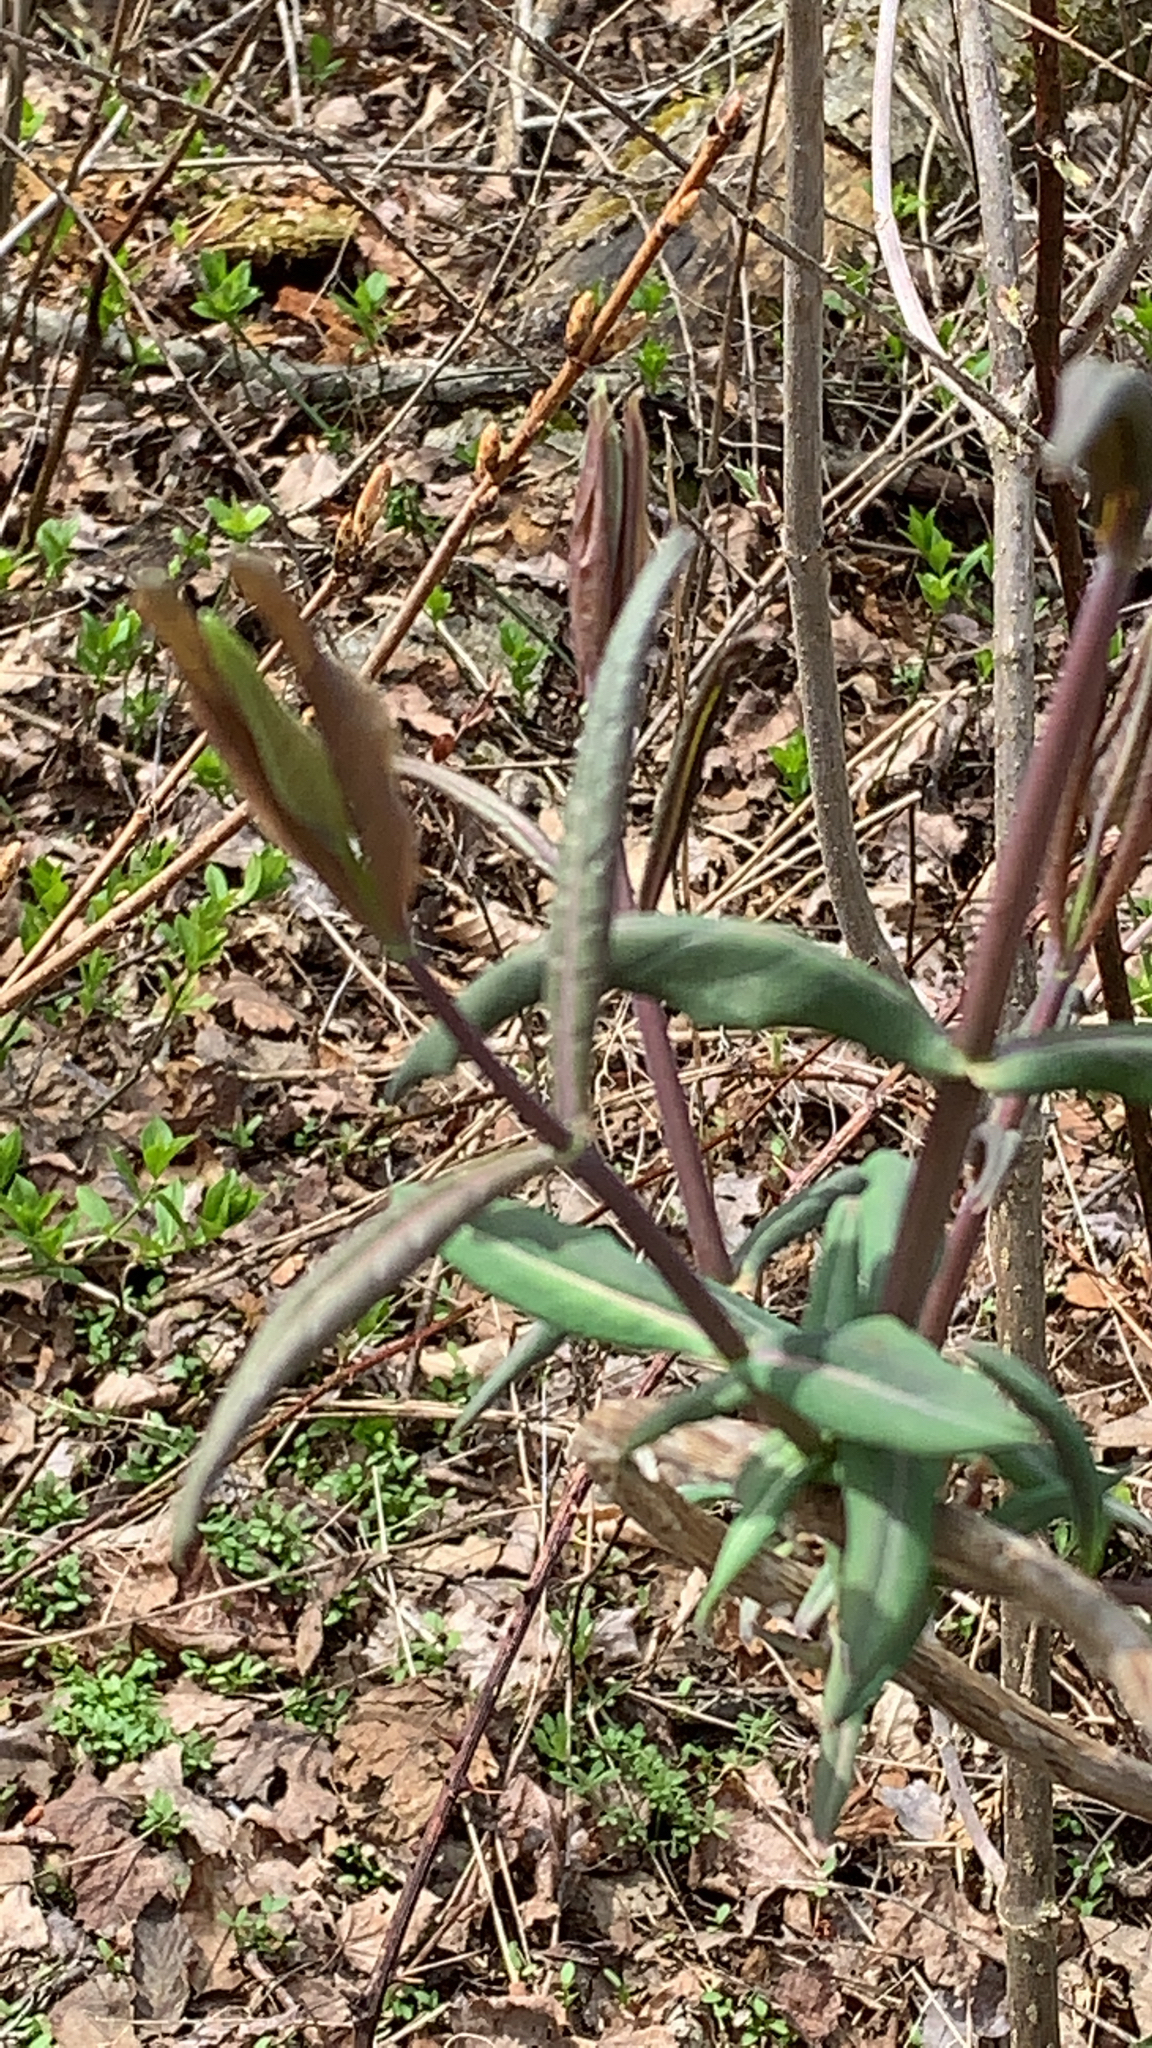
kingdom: Plantae
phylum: Tracheophyta
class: Magnoliopsida
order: Dipsacales
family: Caprifoliaceae
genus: Lonicera
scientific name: Lonicera dioica
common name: Limber honeysuckle
